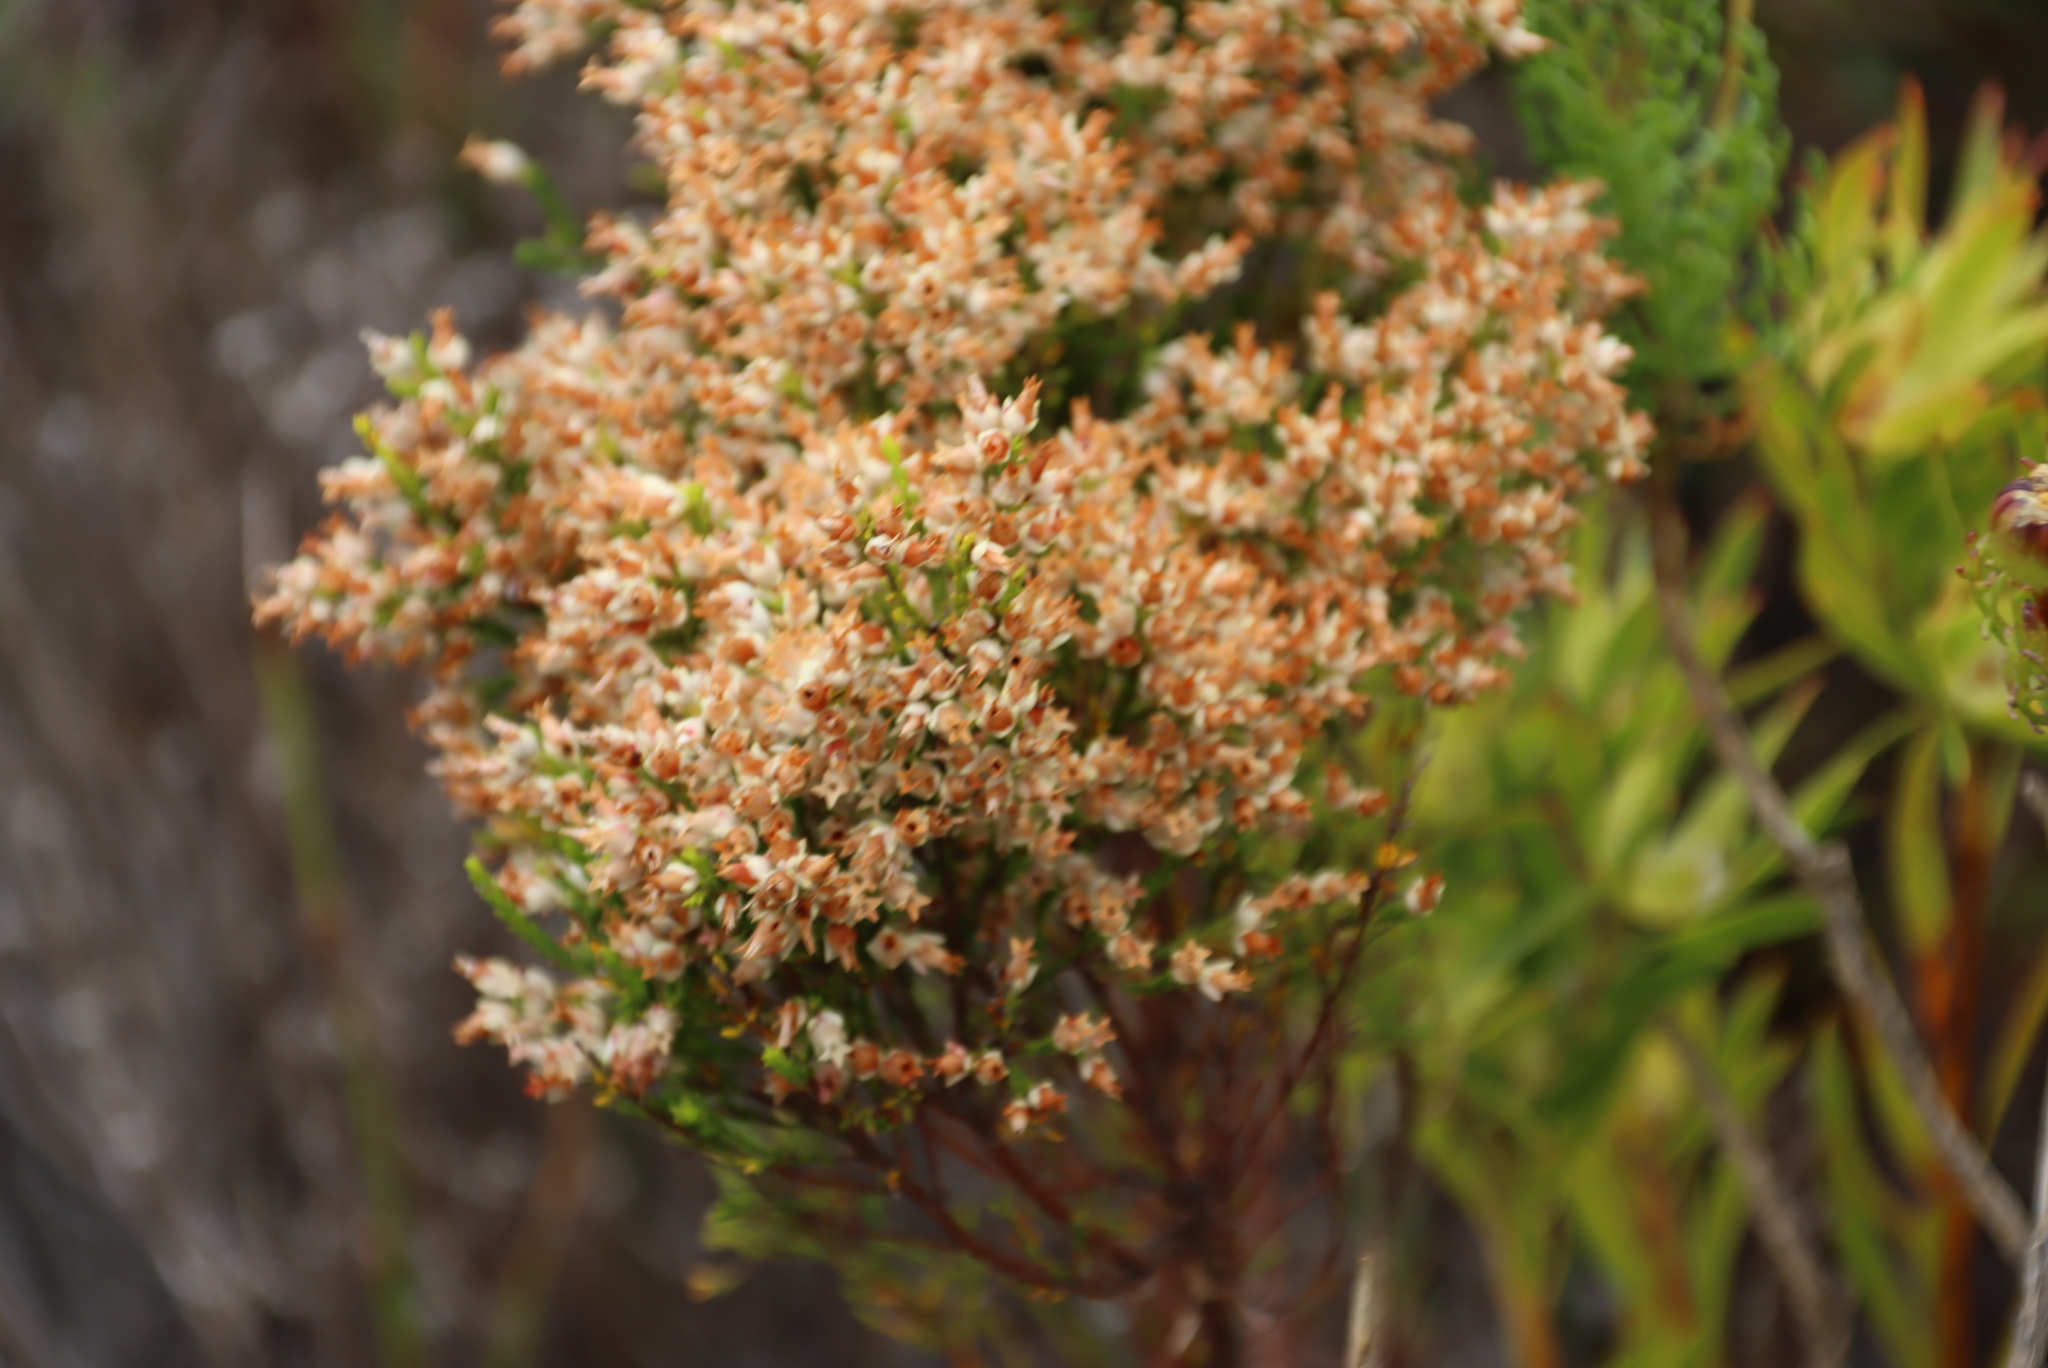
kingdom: Plantae
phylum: Tracheophyta
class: Magnoliopsida
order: Ericales
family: Ericaceae
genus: Erica
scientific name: Erica lutea
